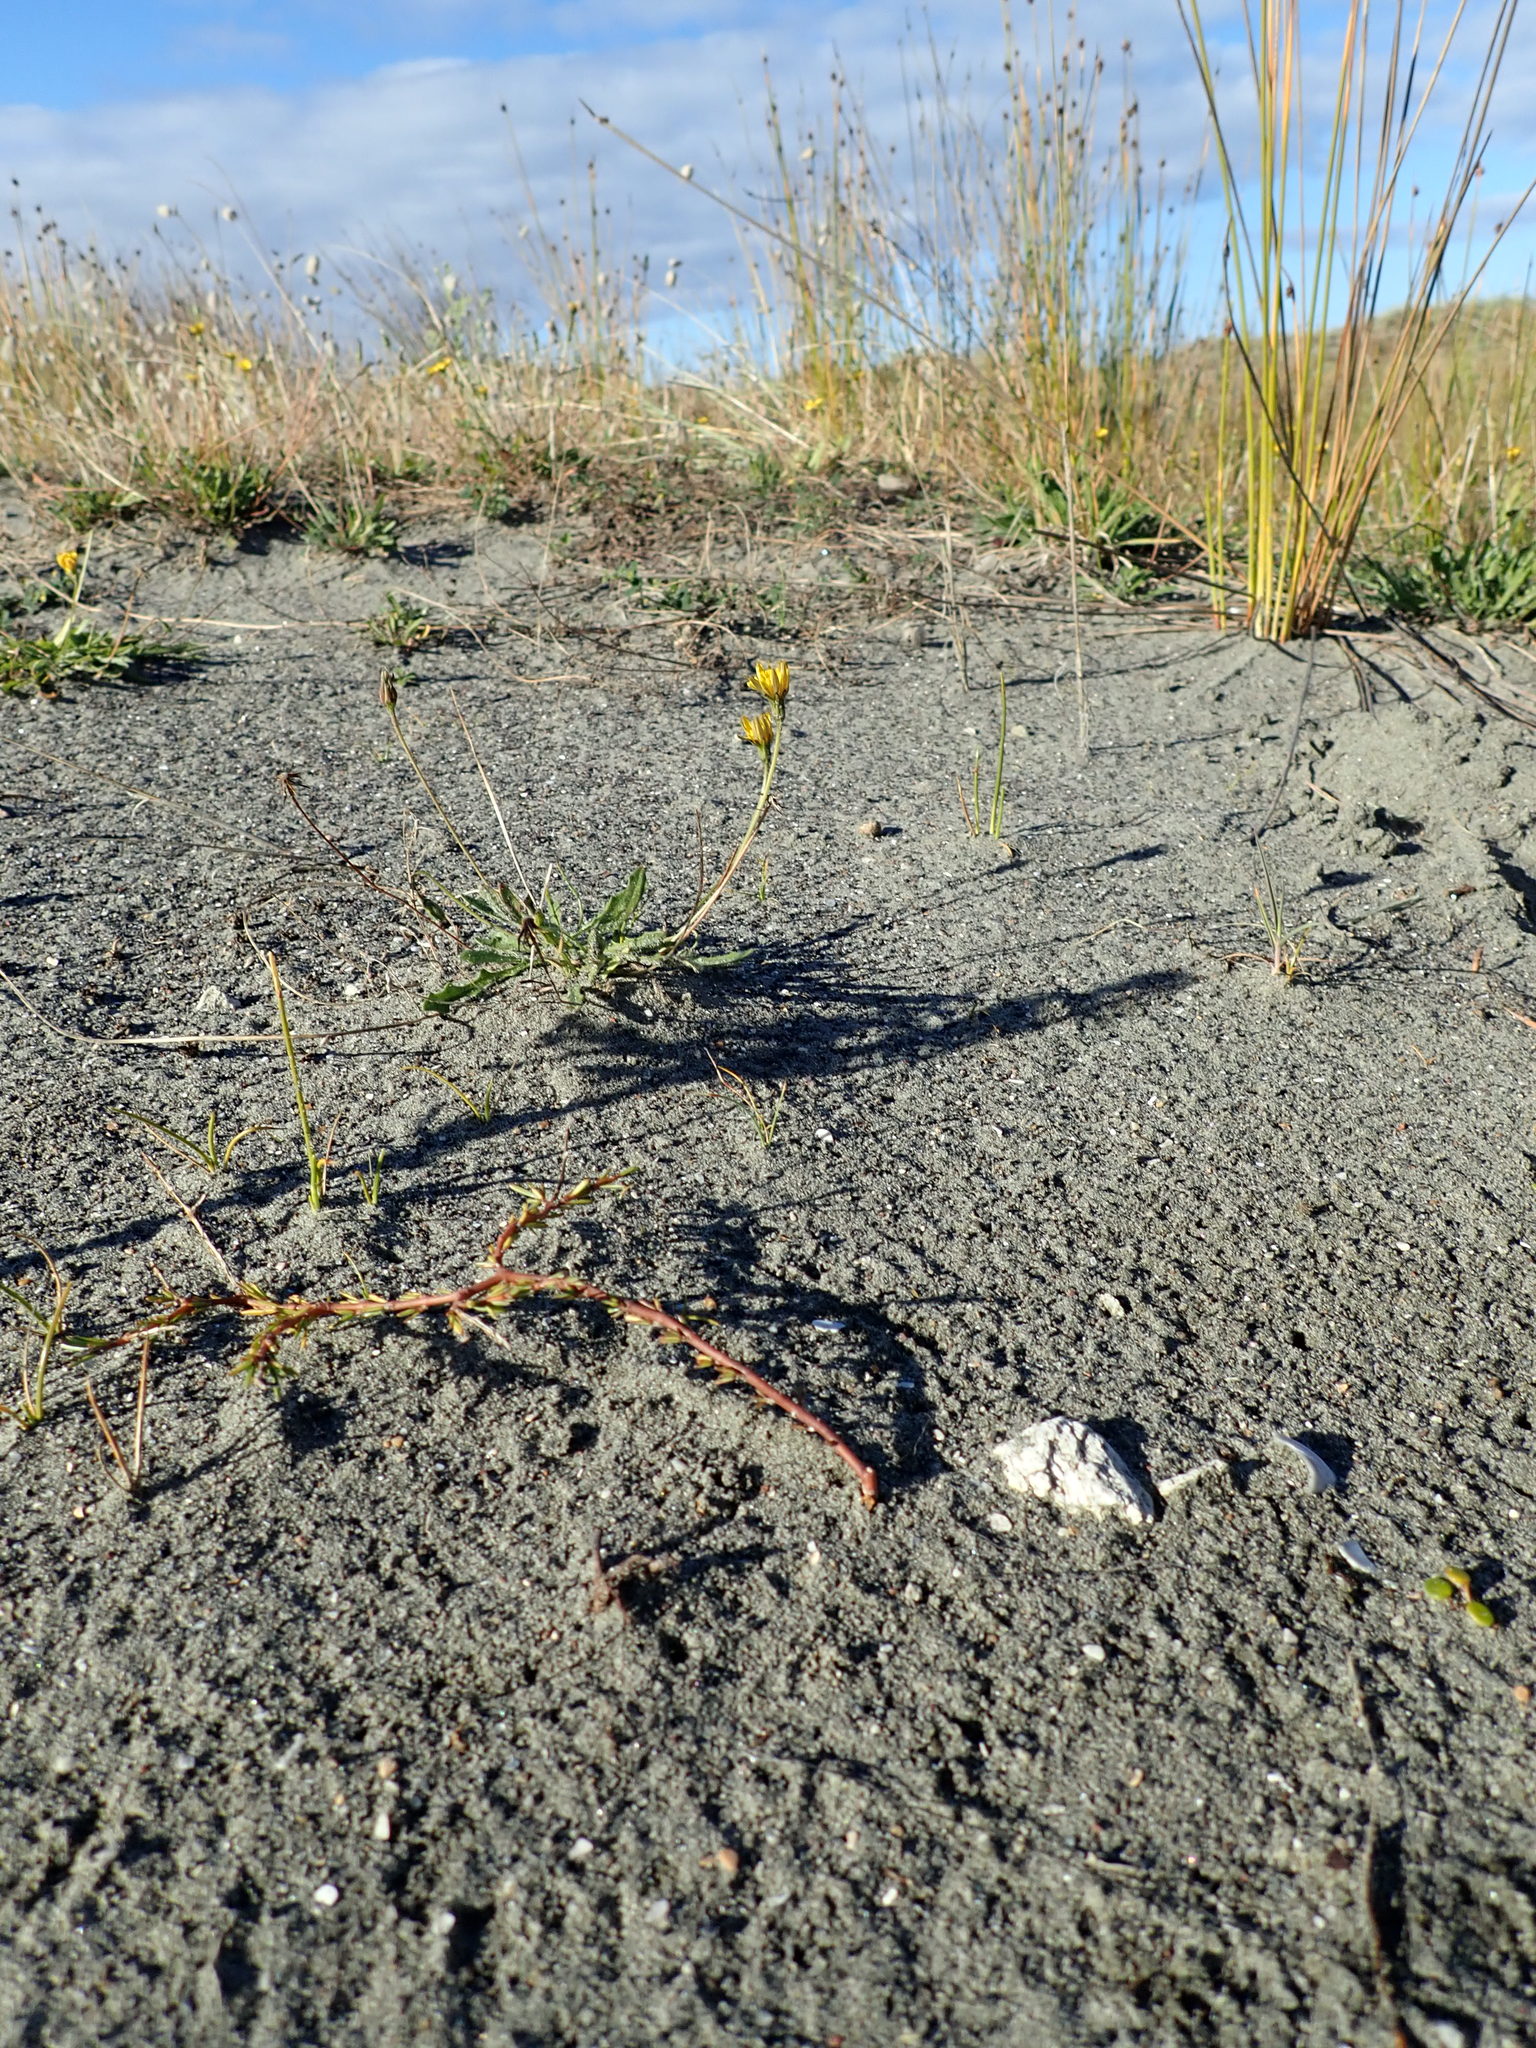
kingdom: Plantae
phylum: Tracheophyta
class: Magnoliopsida
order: Gentianales
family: Rubiaceae
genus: Coprosma
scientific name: Coprosma acerosa
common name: Sand coprosma
